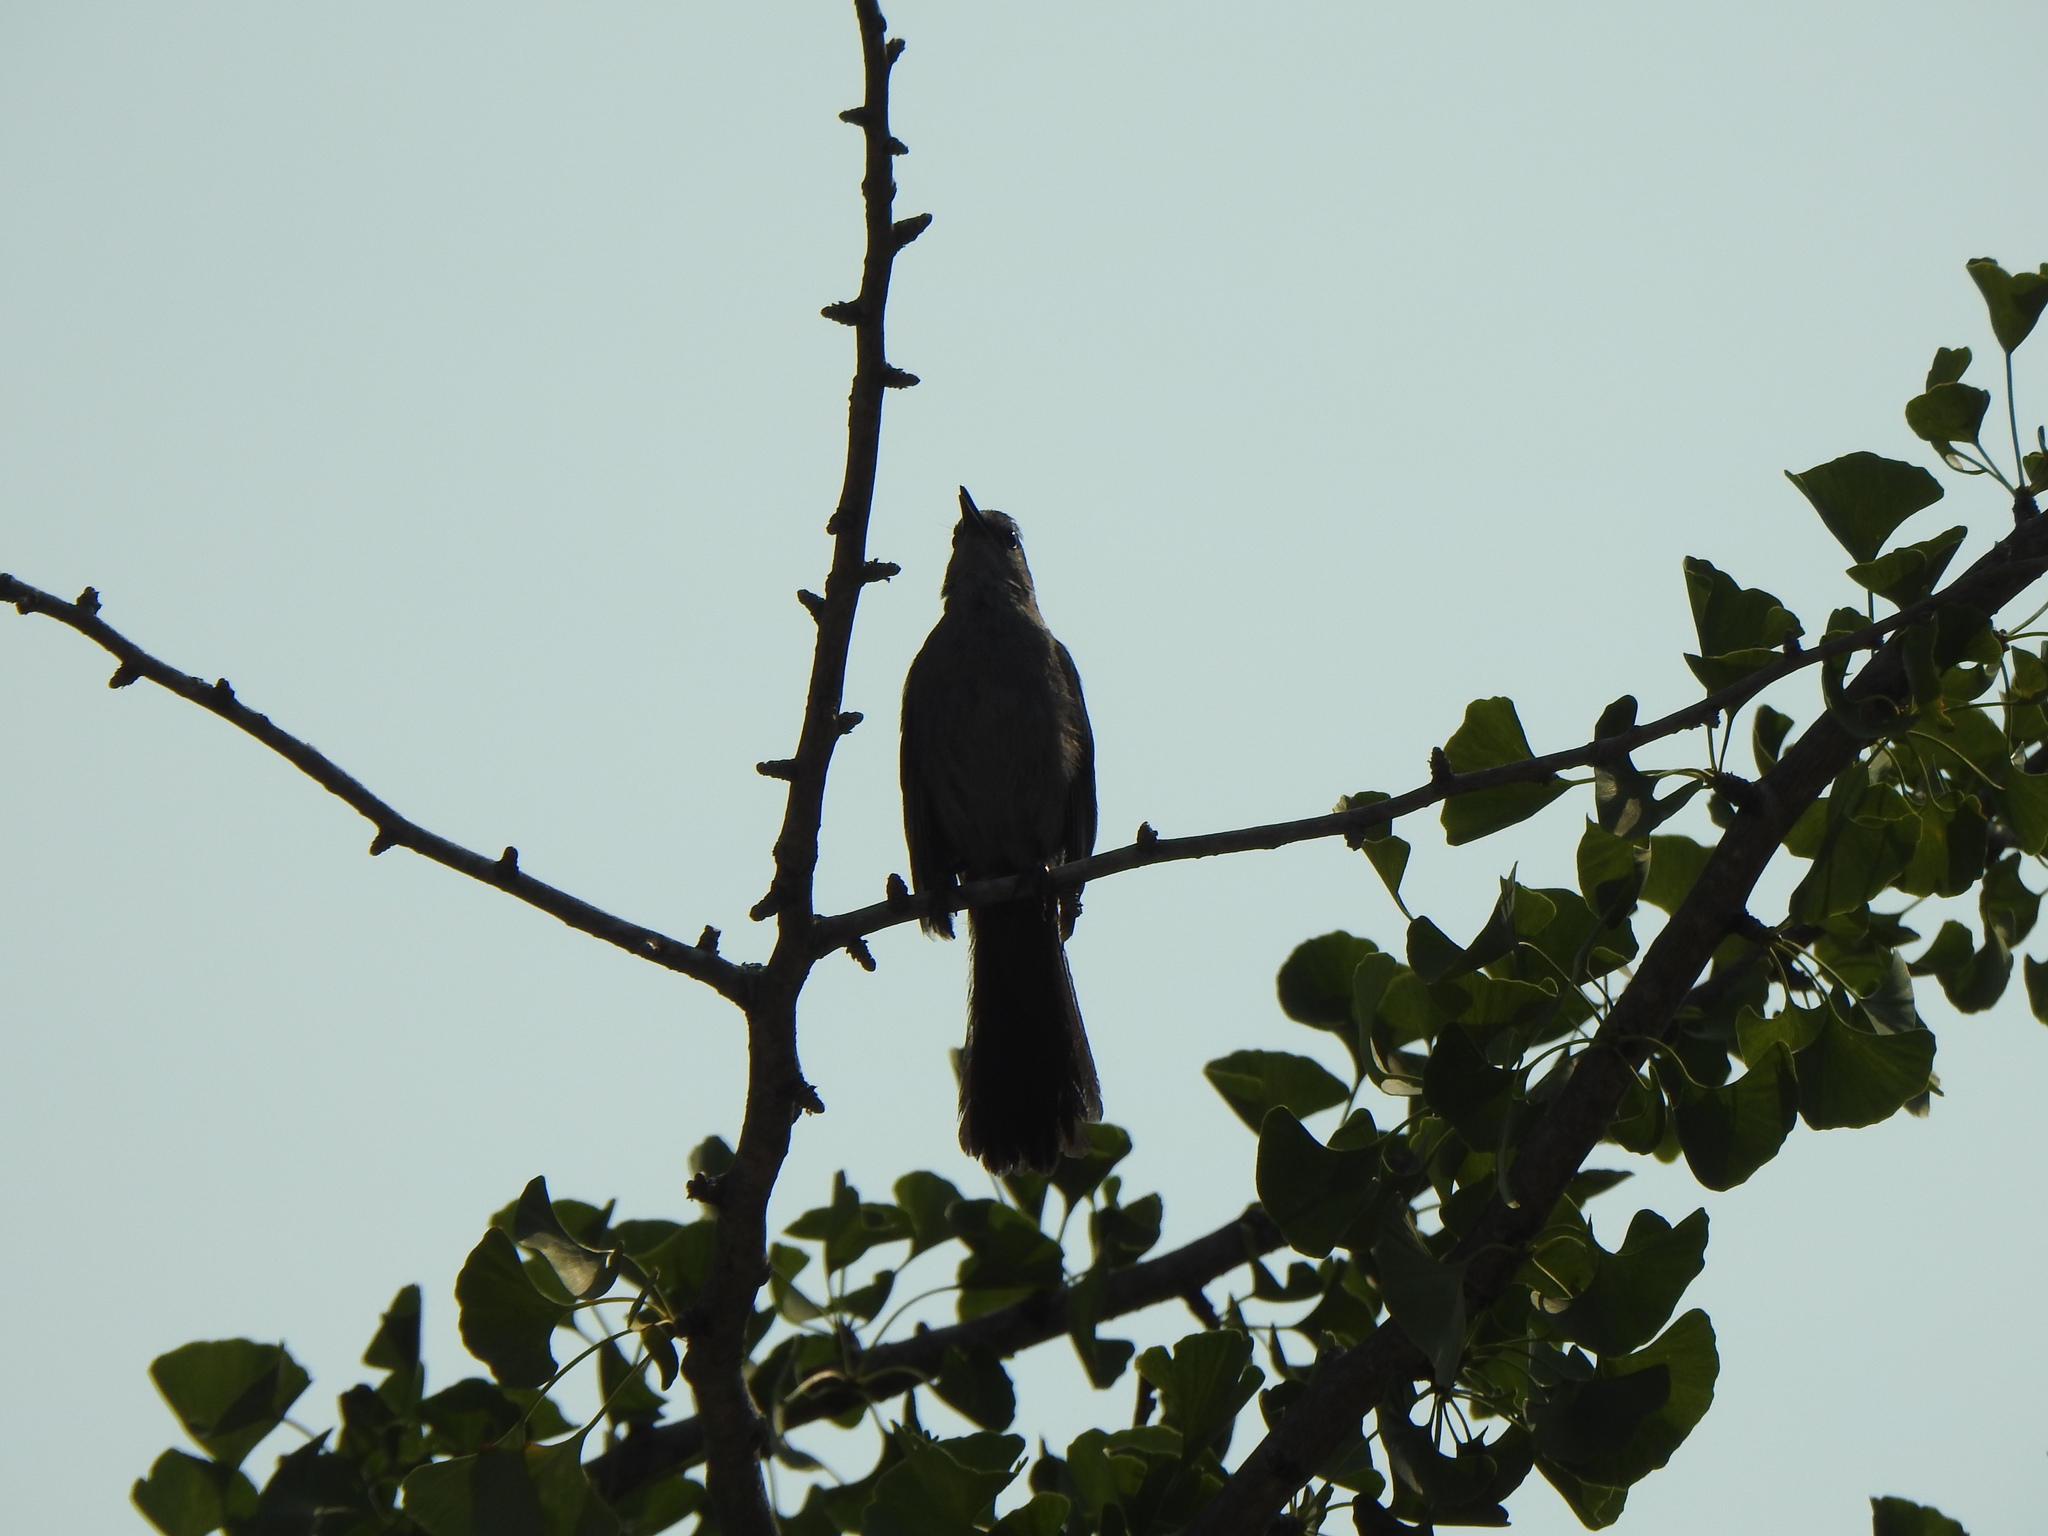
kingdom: Animalia
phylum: Chordata
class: Aves
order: Passeriformes
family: Mimidae
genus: Dumetella
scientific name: Dumetella carolinensis
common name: Gray catbird
